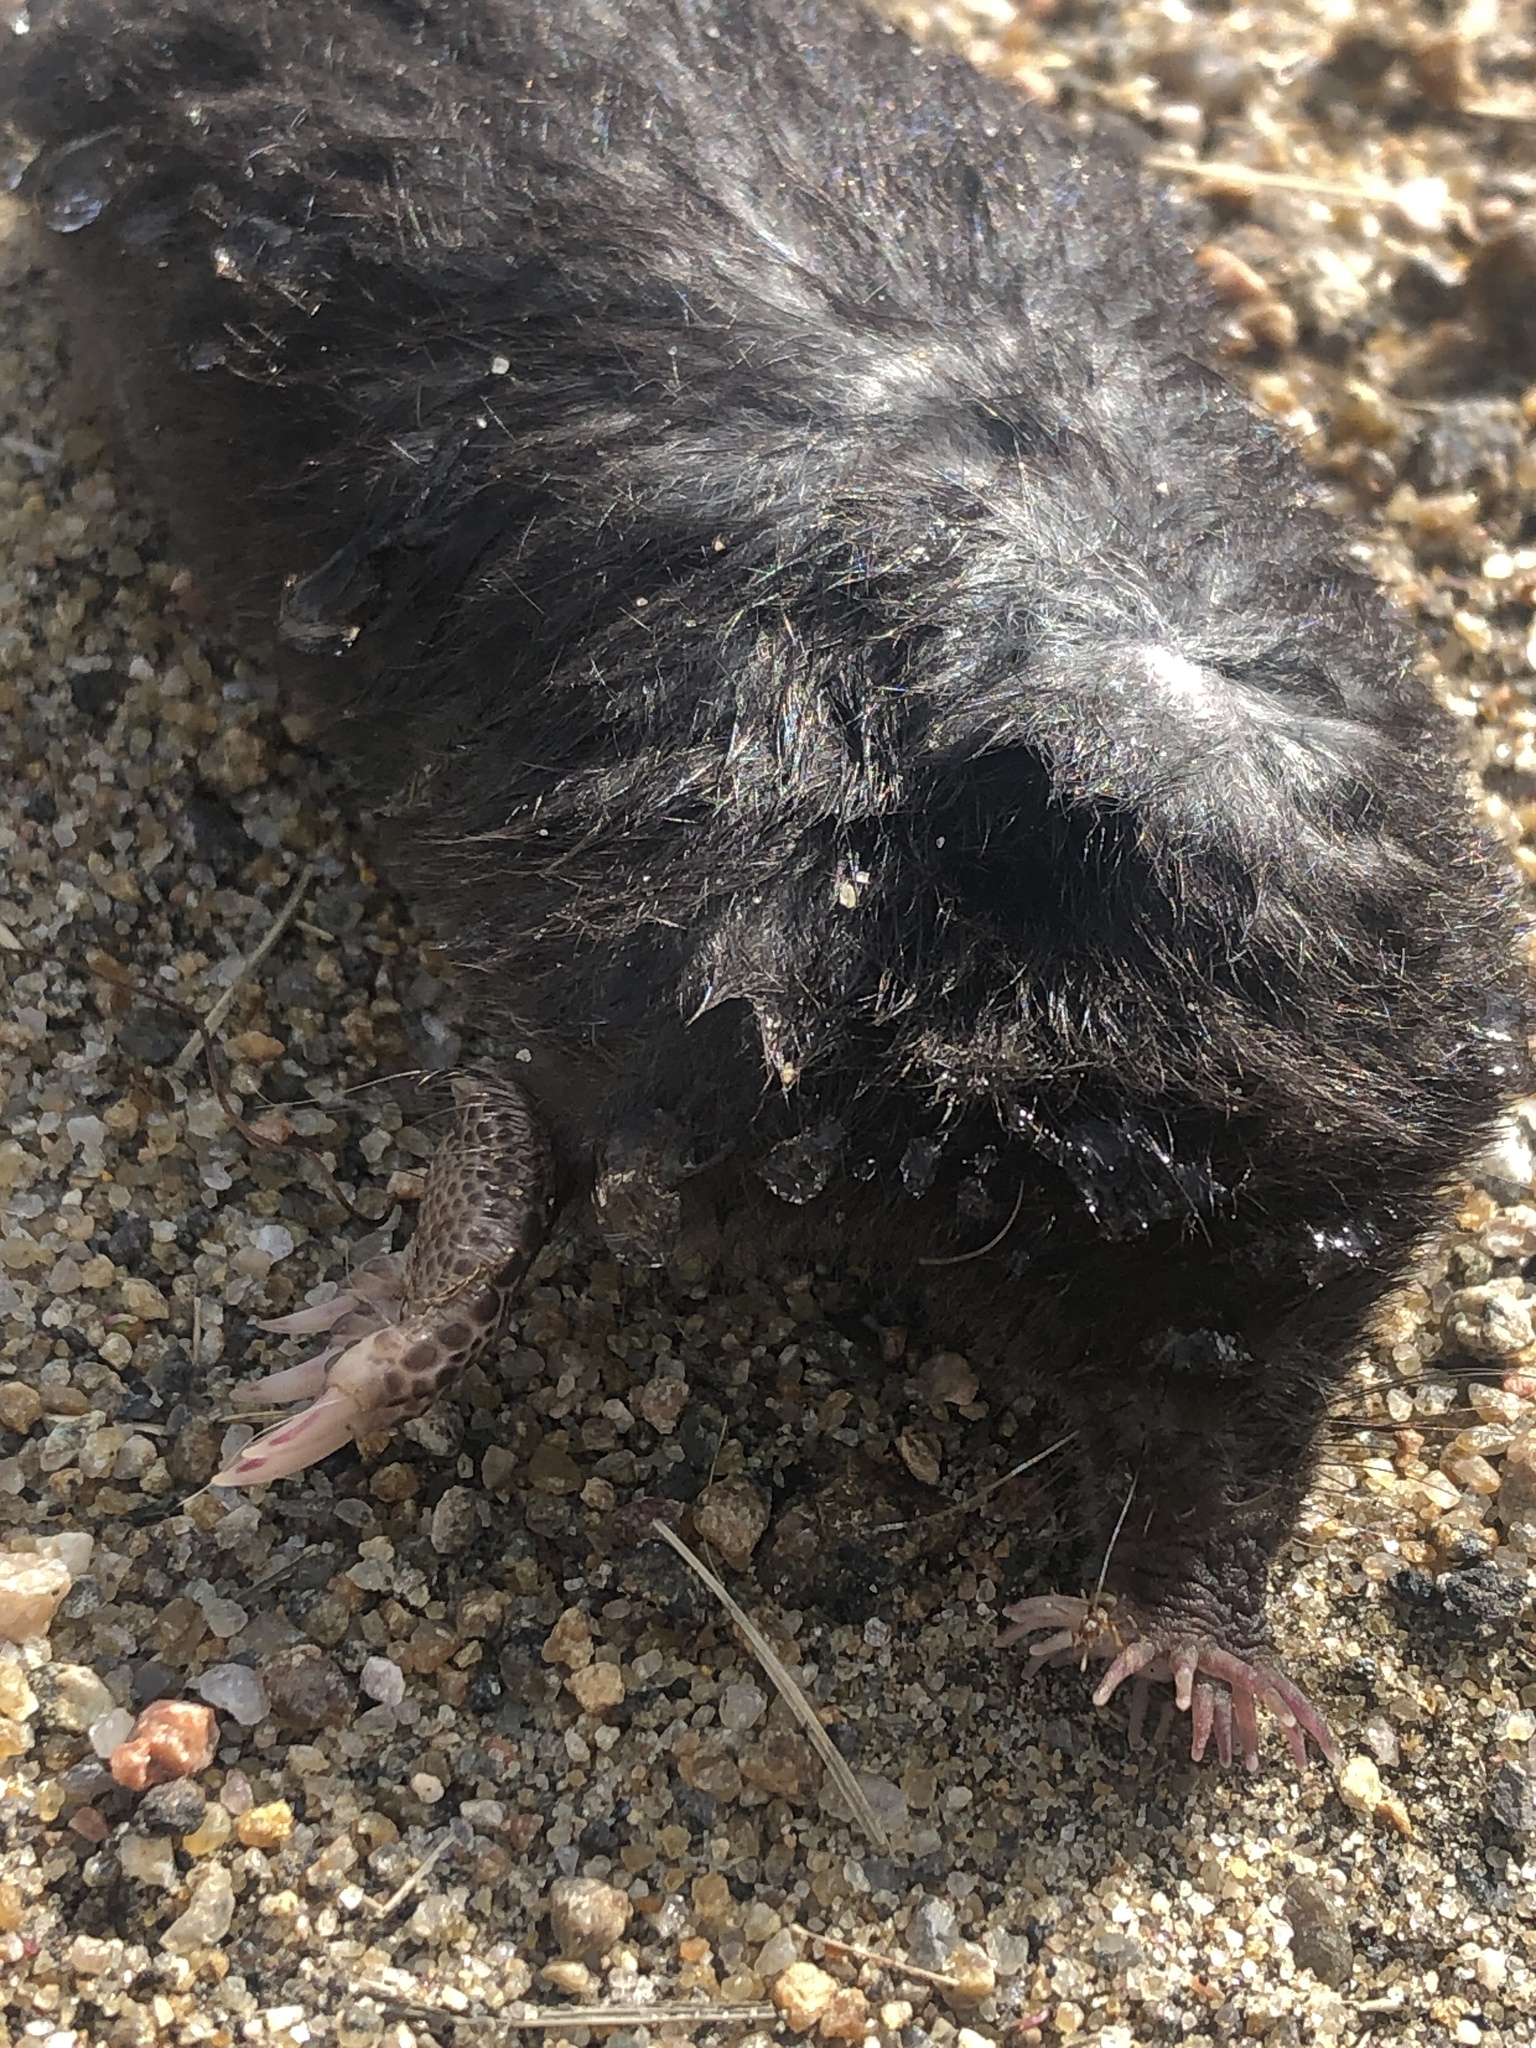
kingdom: Animalia
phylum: Chordata
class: Mammalia
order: Soricomorpha
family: Talpidae
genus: Condylura
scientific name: Condylura cristata
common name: Star-nosed mole
